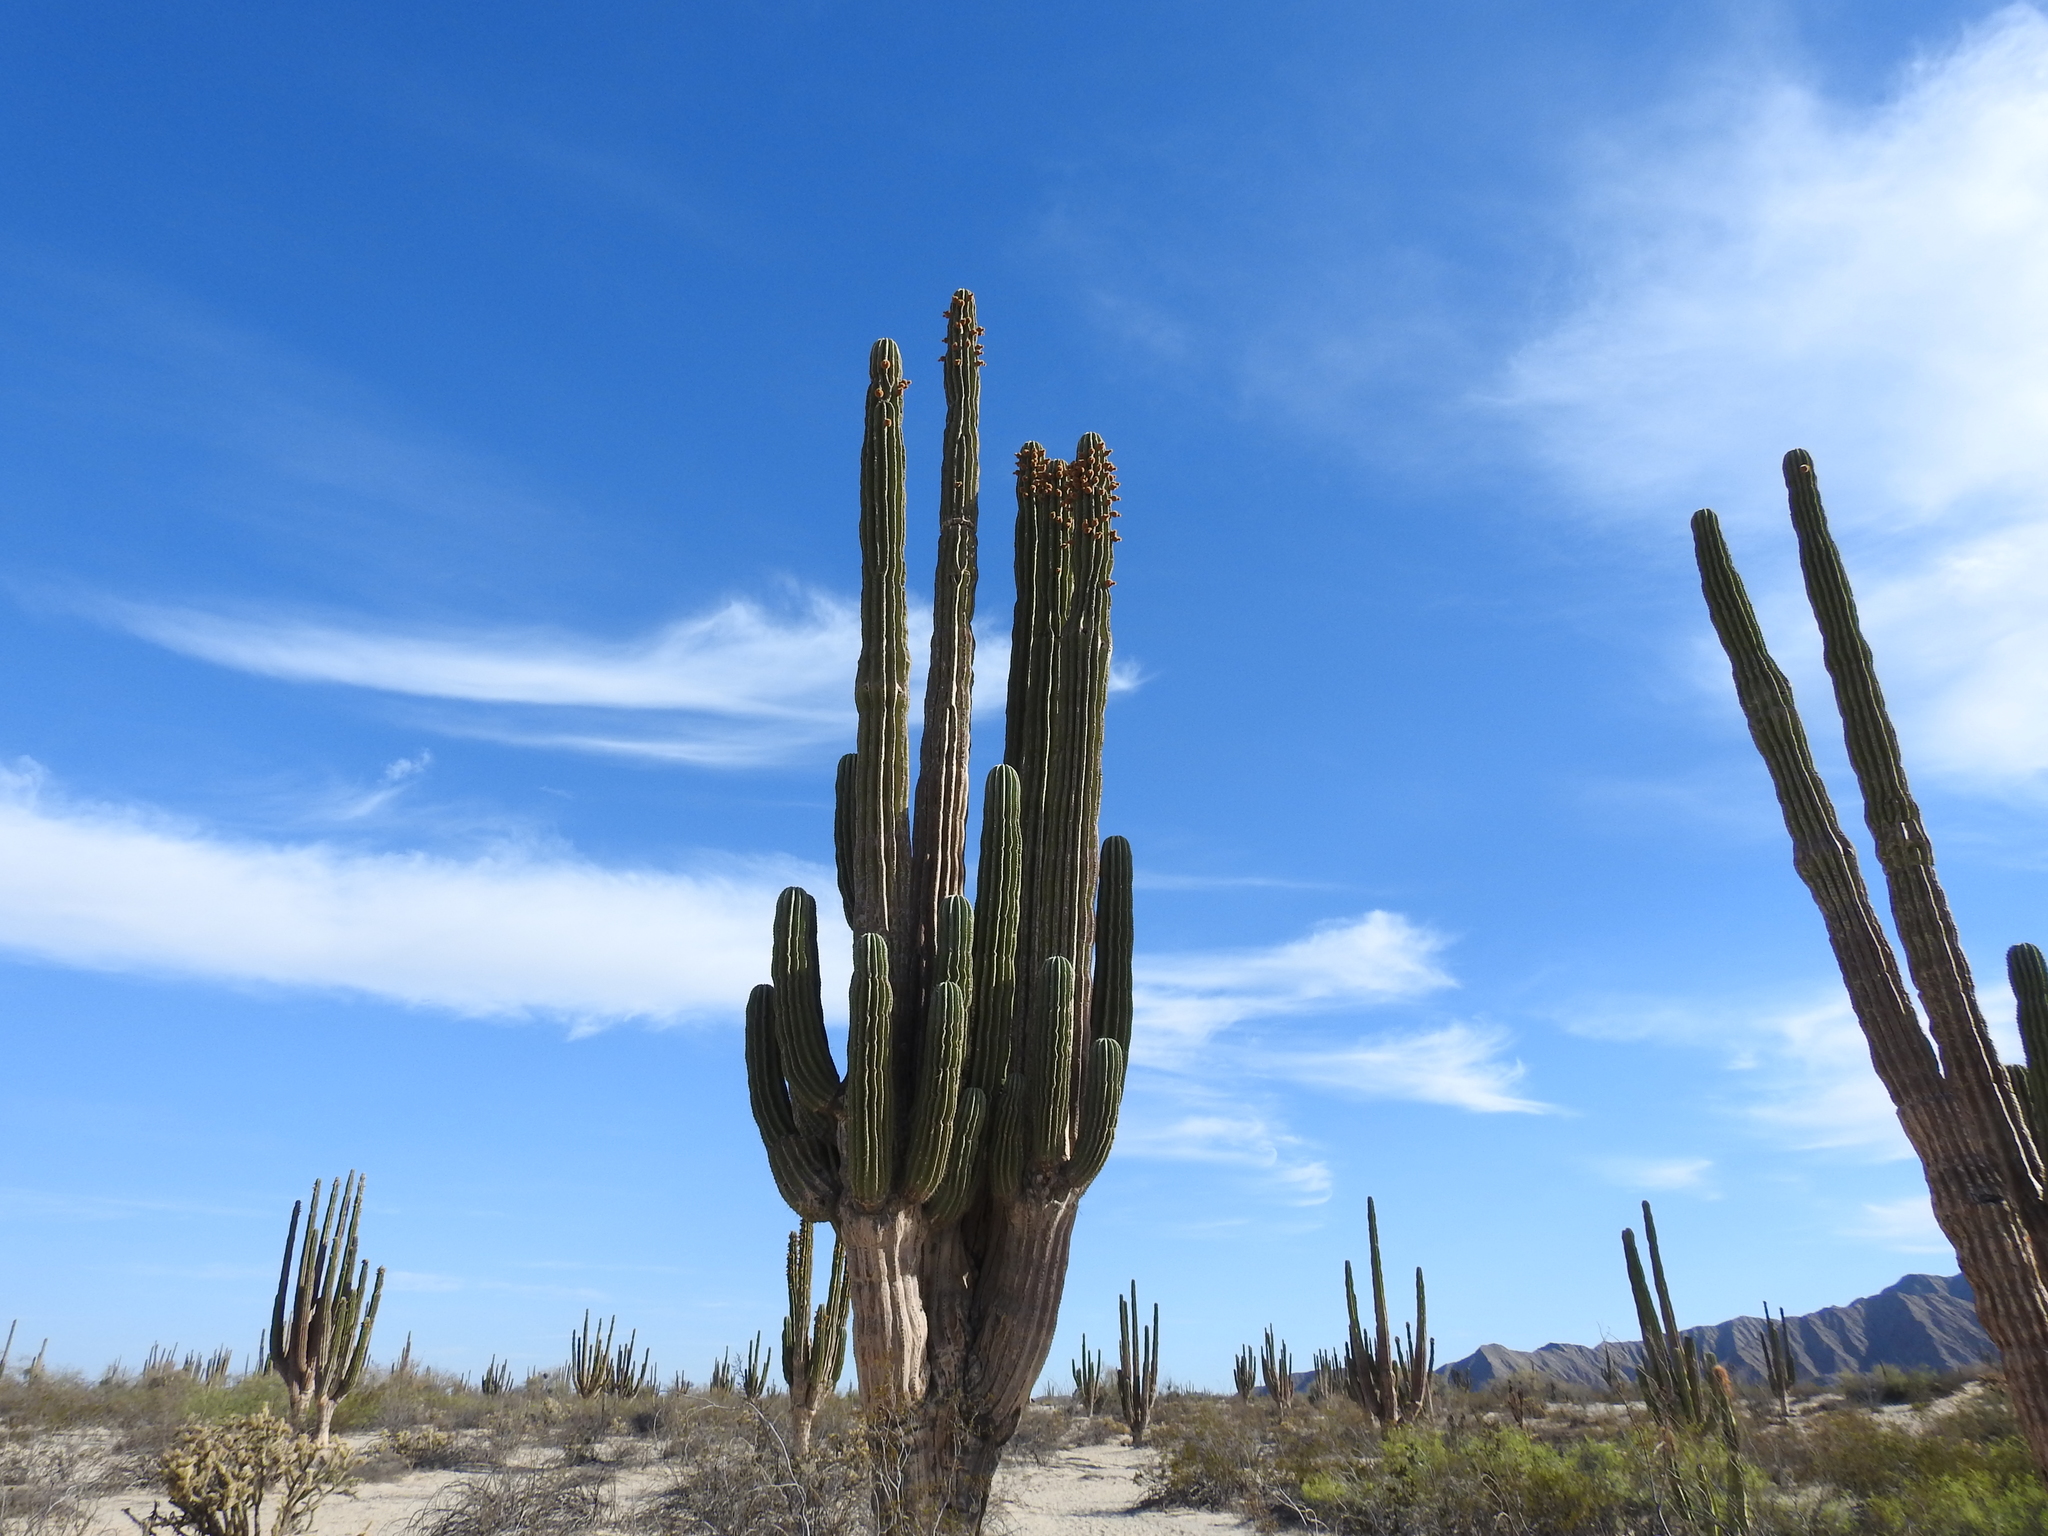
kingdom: Plantae
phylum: Tracheophyta
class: Magnoliopsida
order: Caryophyllales
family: Cactaceae
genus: Pachycereus
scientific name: Pachycereus pringlei
